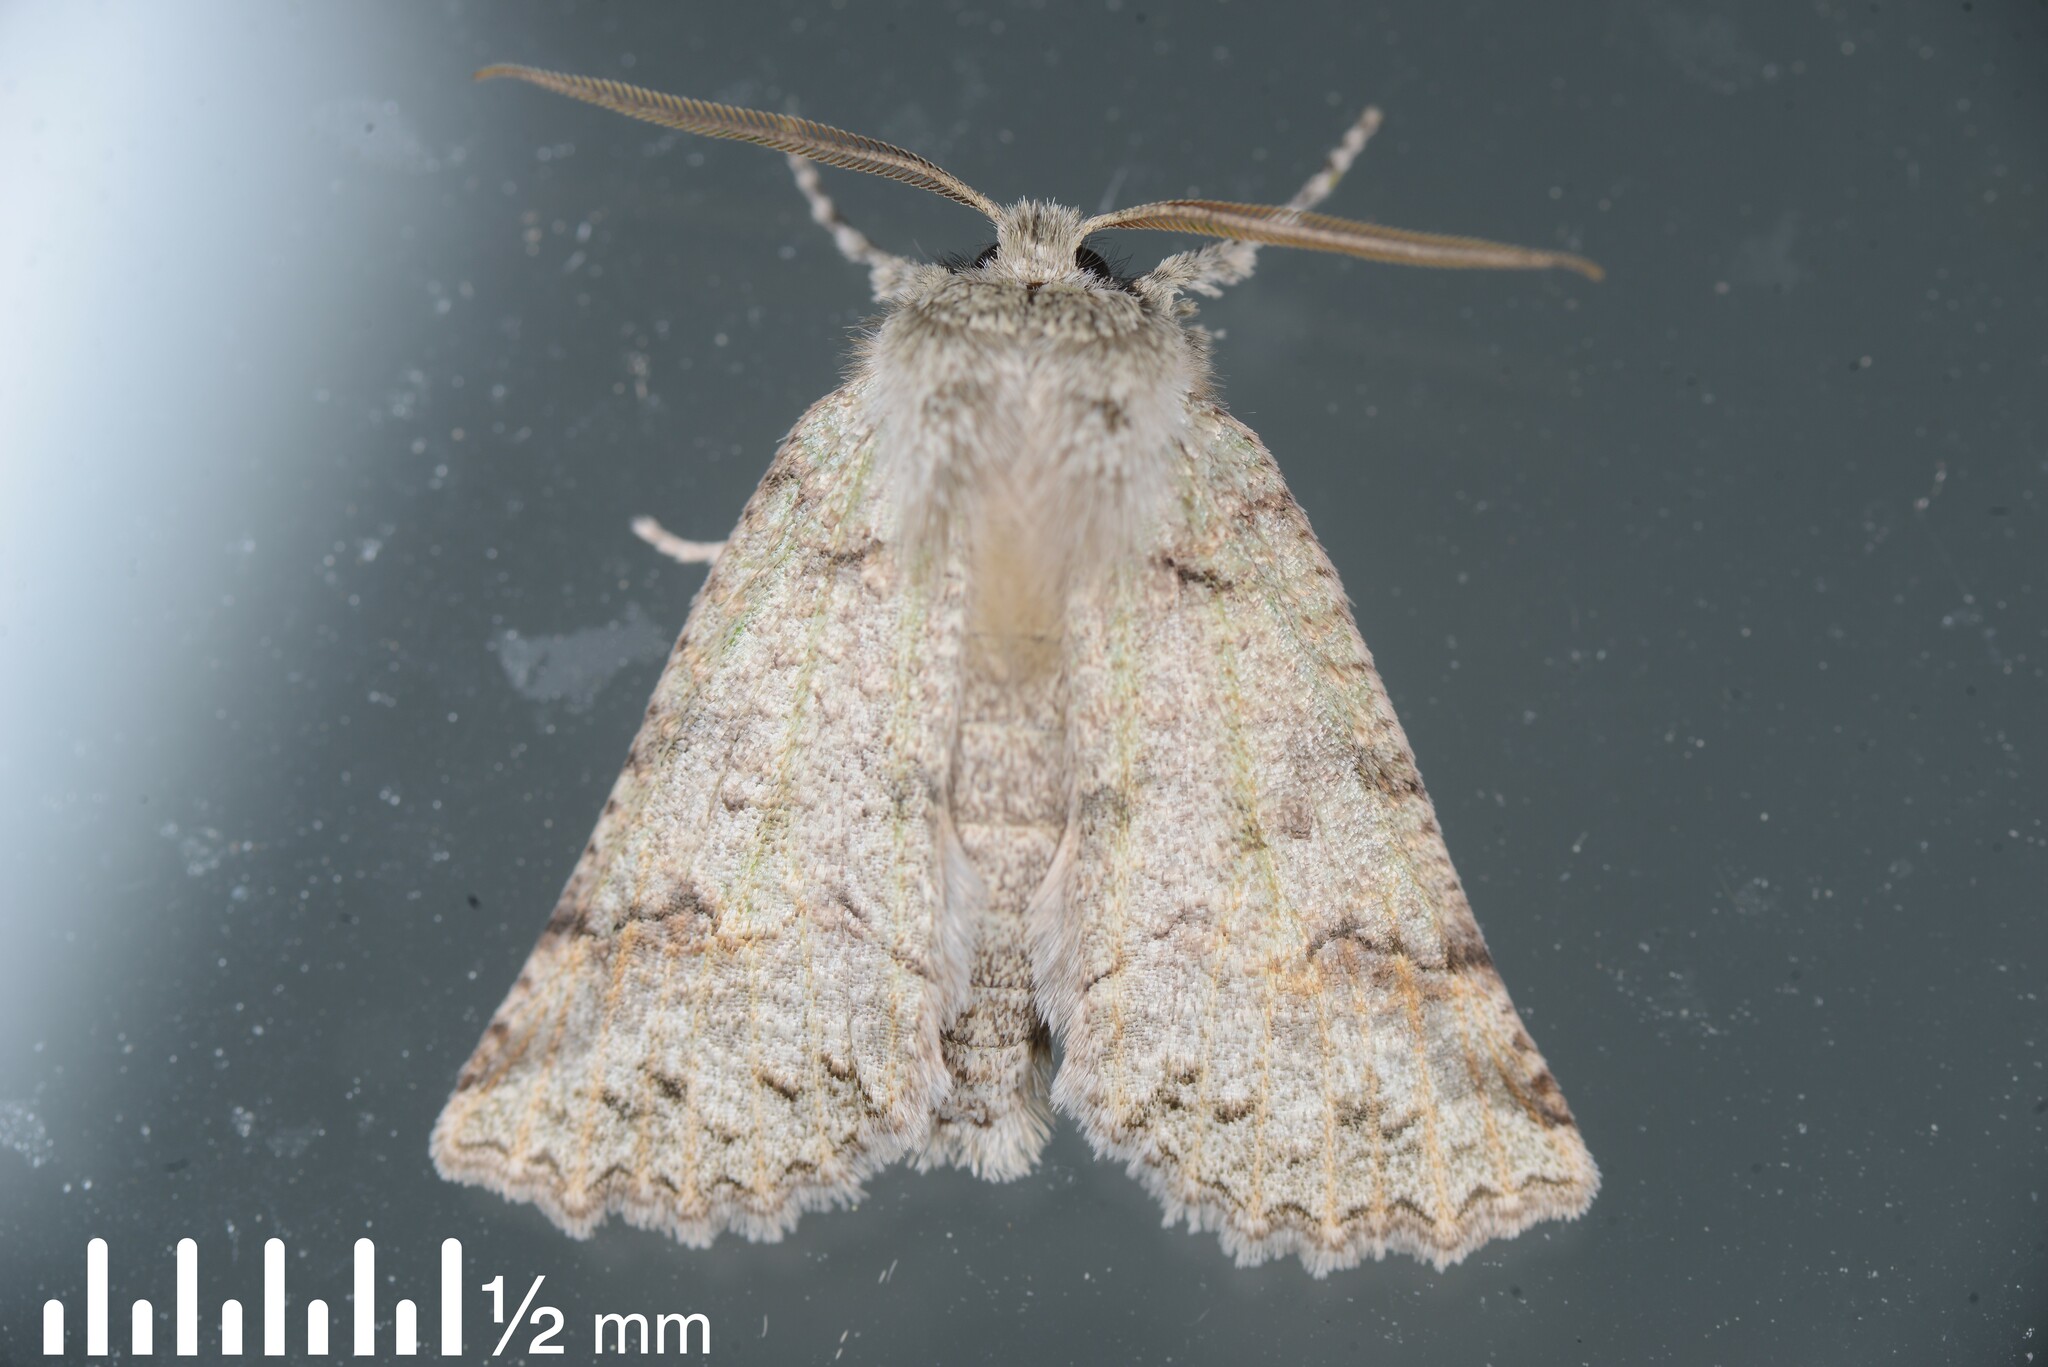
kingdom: Animalia
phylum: Arthropoda
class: Insecta
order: Lepidoptera
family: Geometridae
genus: Declana
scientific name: Declana floccosa
